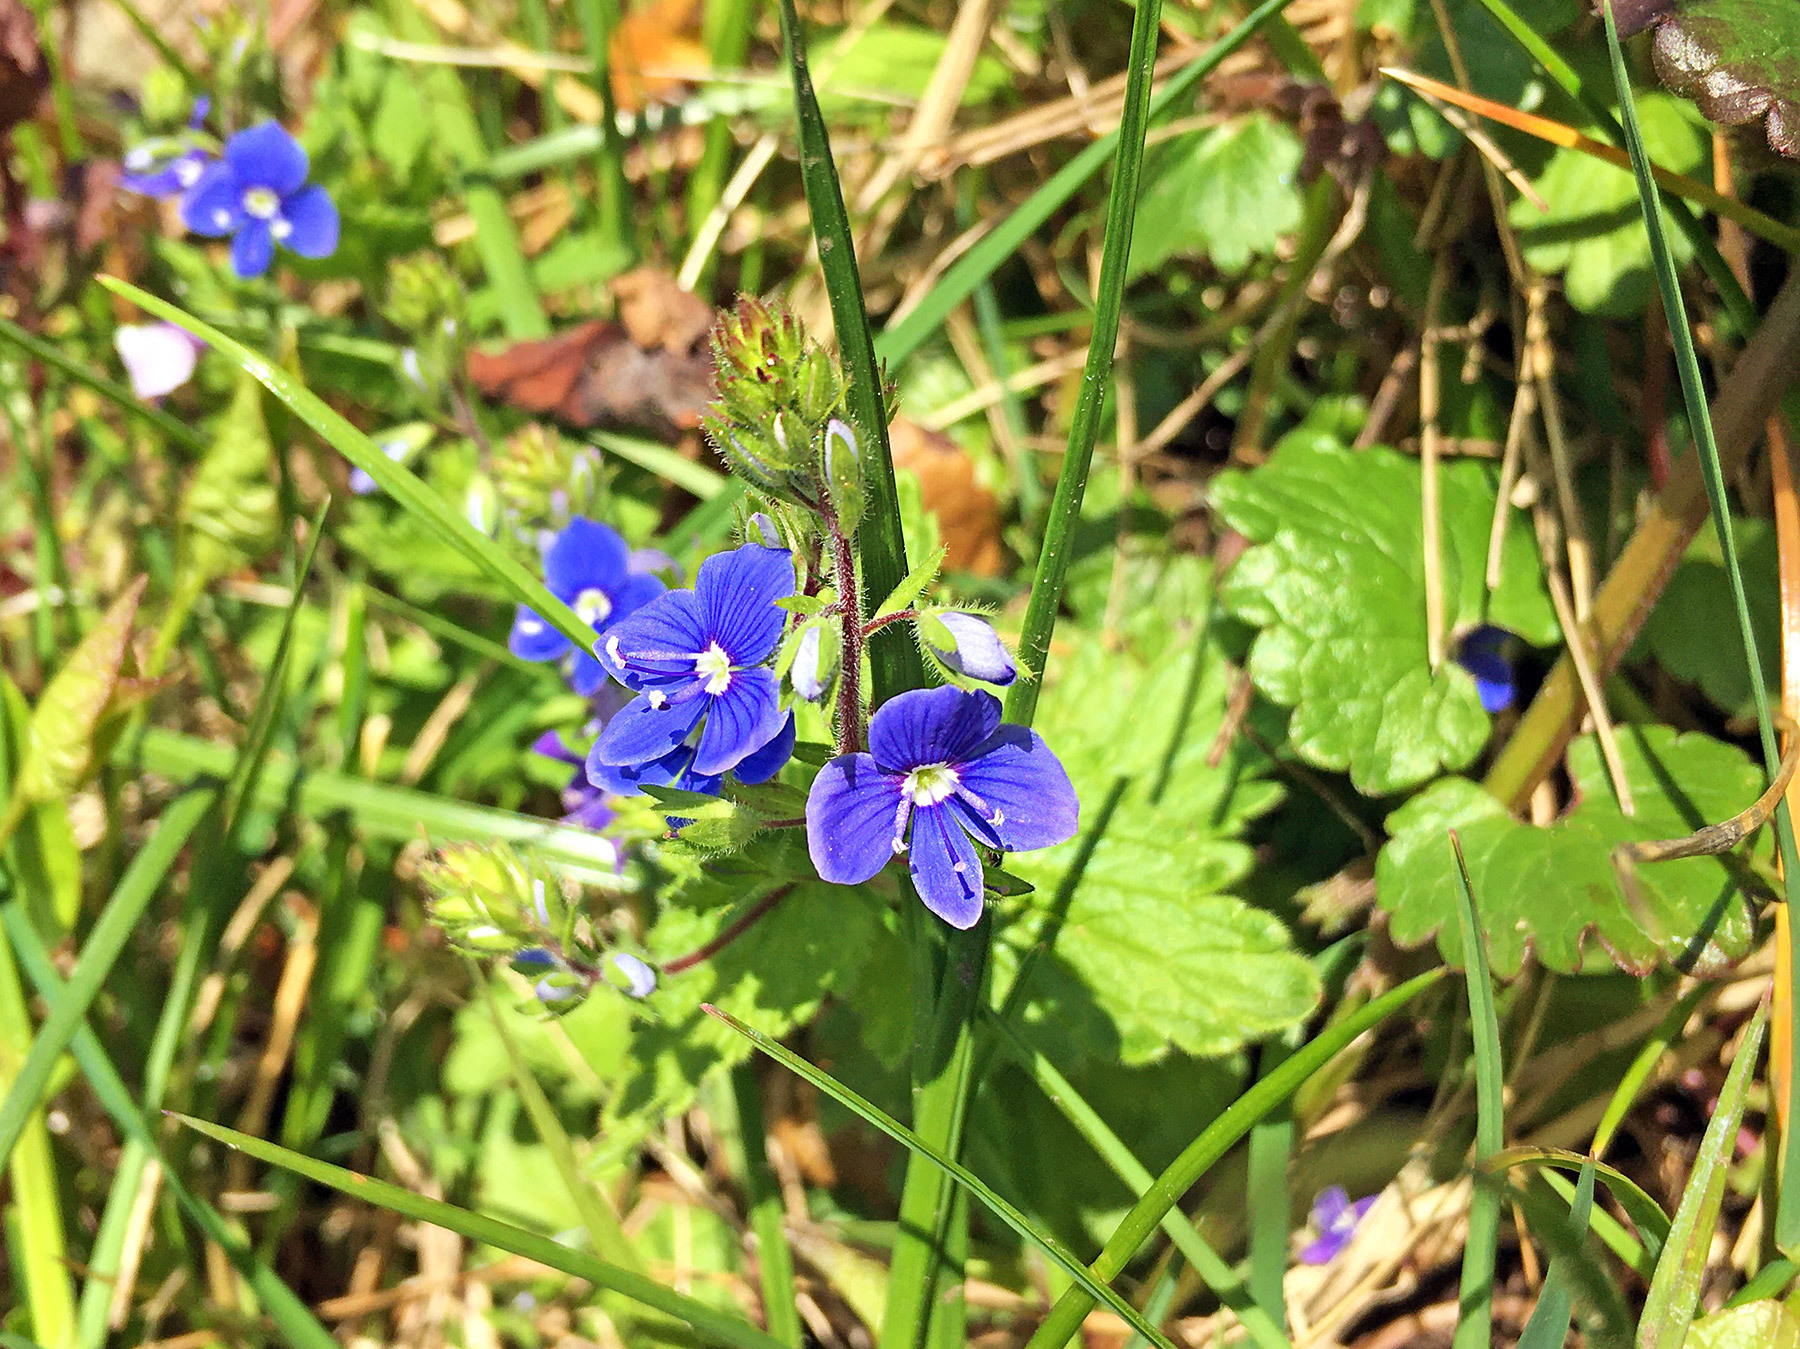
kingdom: Plantae
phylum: Tracheophyta
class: Magnoliopsida
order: Lamiales
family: Plantaginaceae
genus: Veronica
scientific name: Veronica chamaedrys
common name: Germander speedwell
